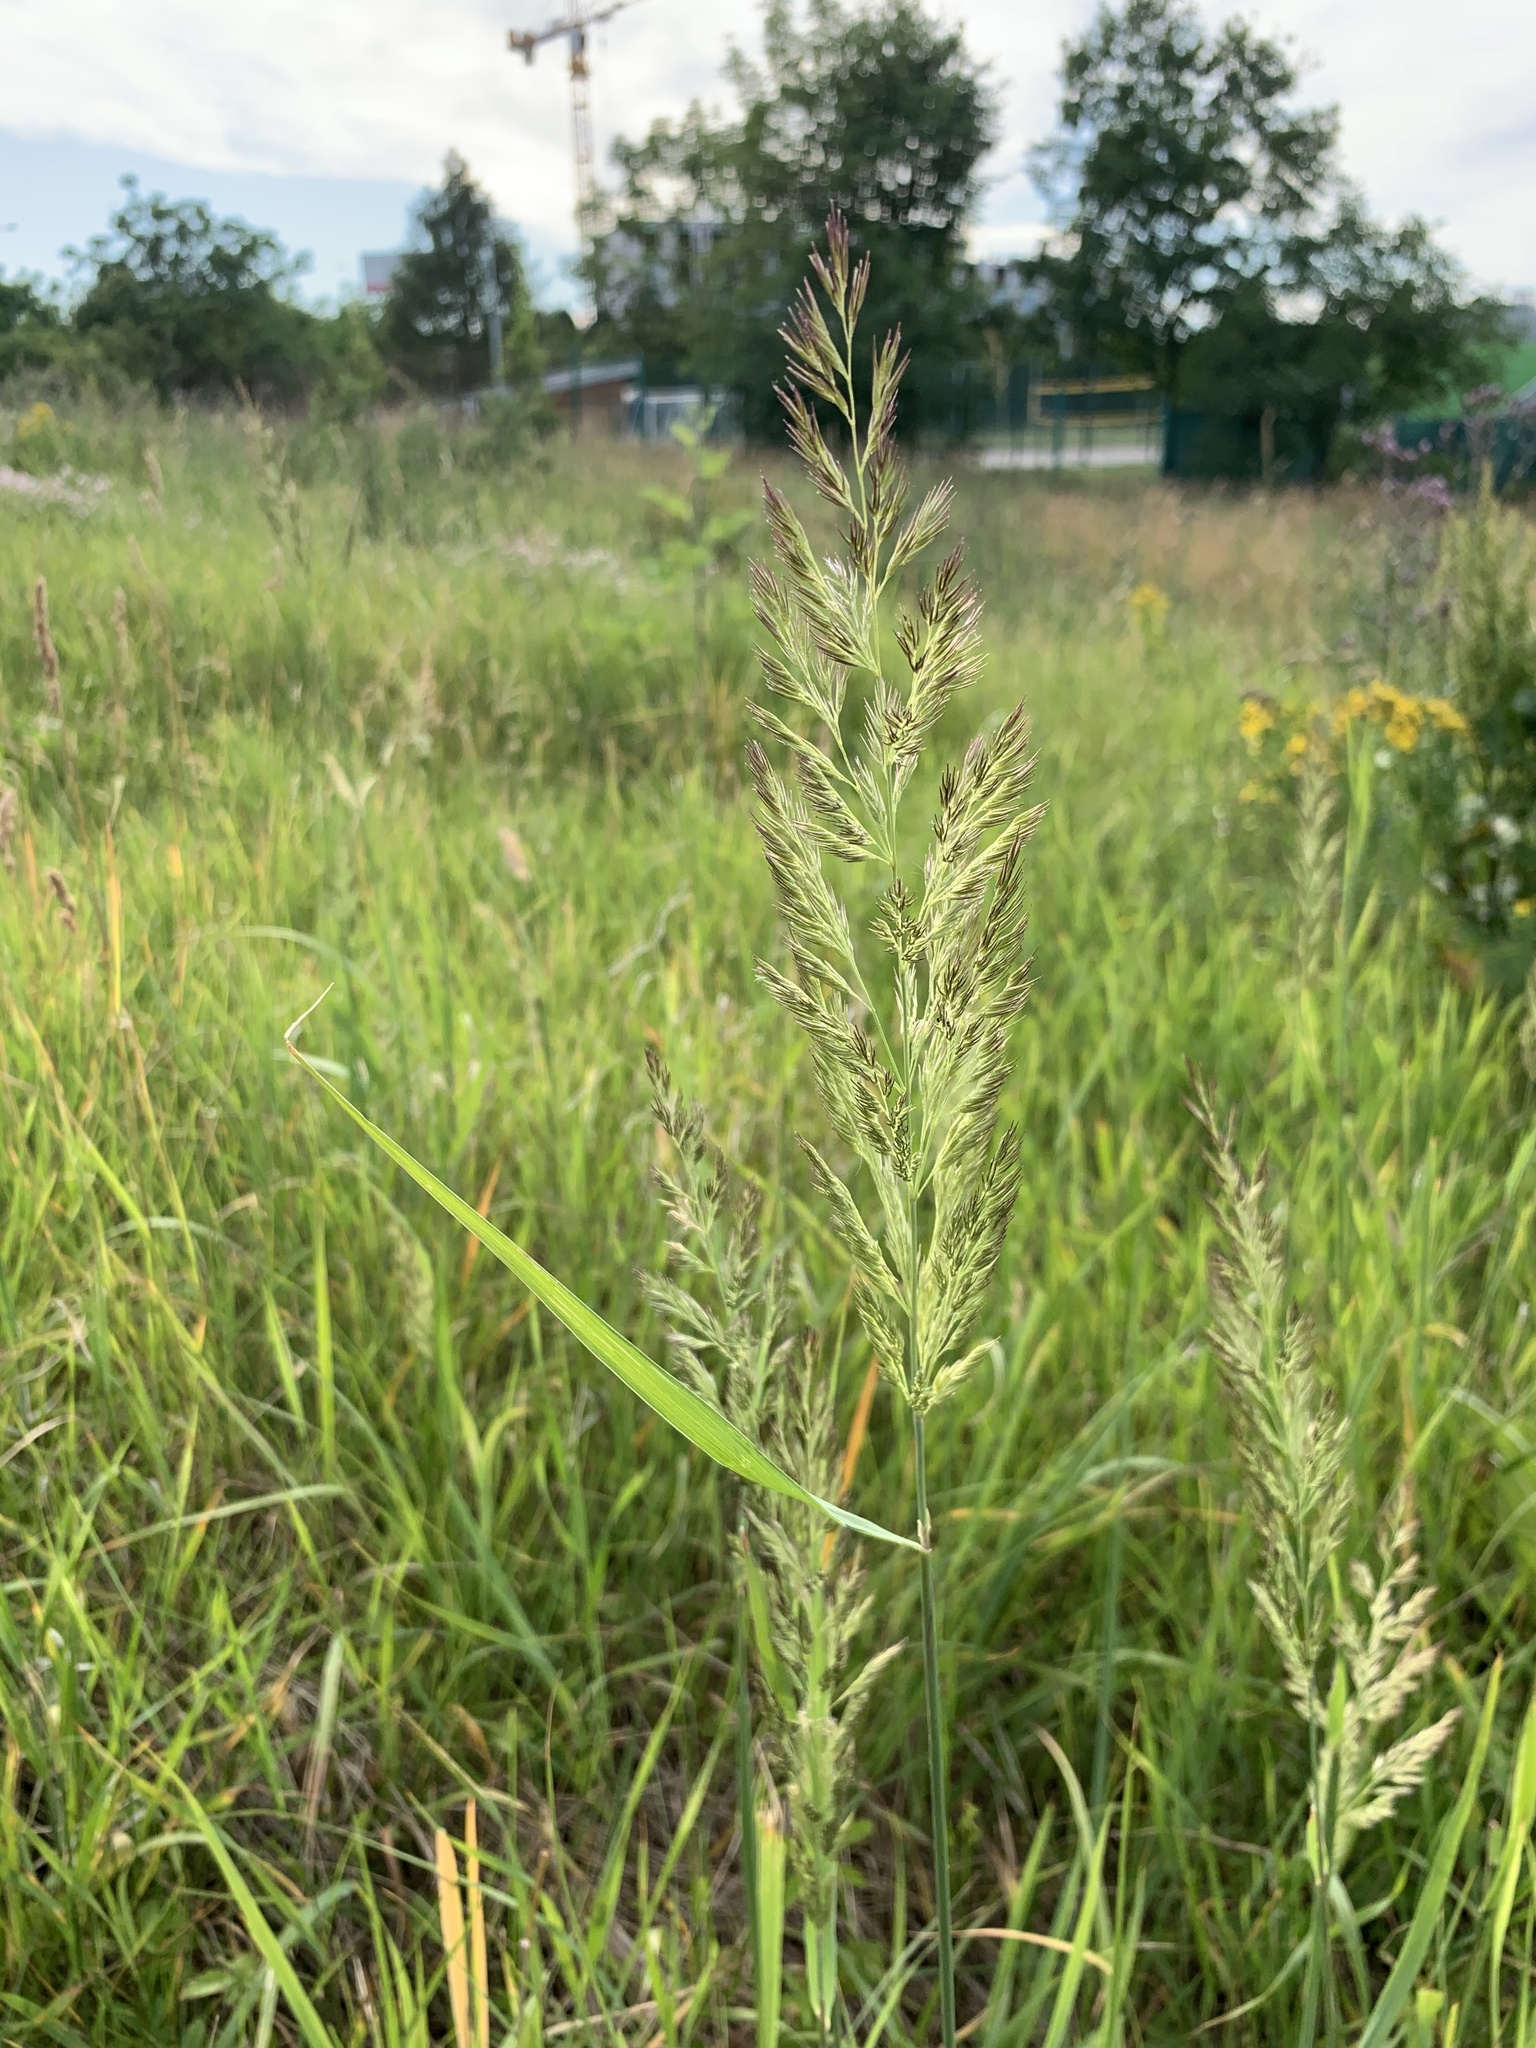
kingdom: Plantae
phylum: Tracheophyta
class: Liliopsida
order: Poales
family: Poaceae
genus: Calamagrostis
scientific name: Calamagrostis epigejos
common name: Wood small-reed
